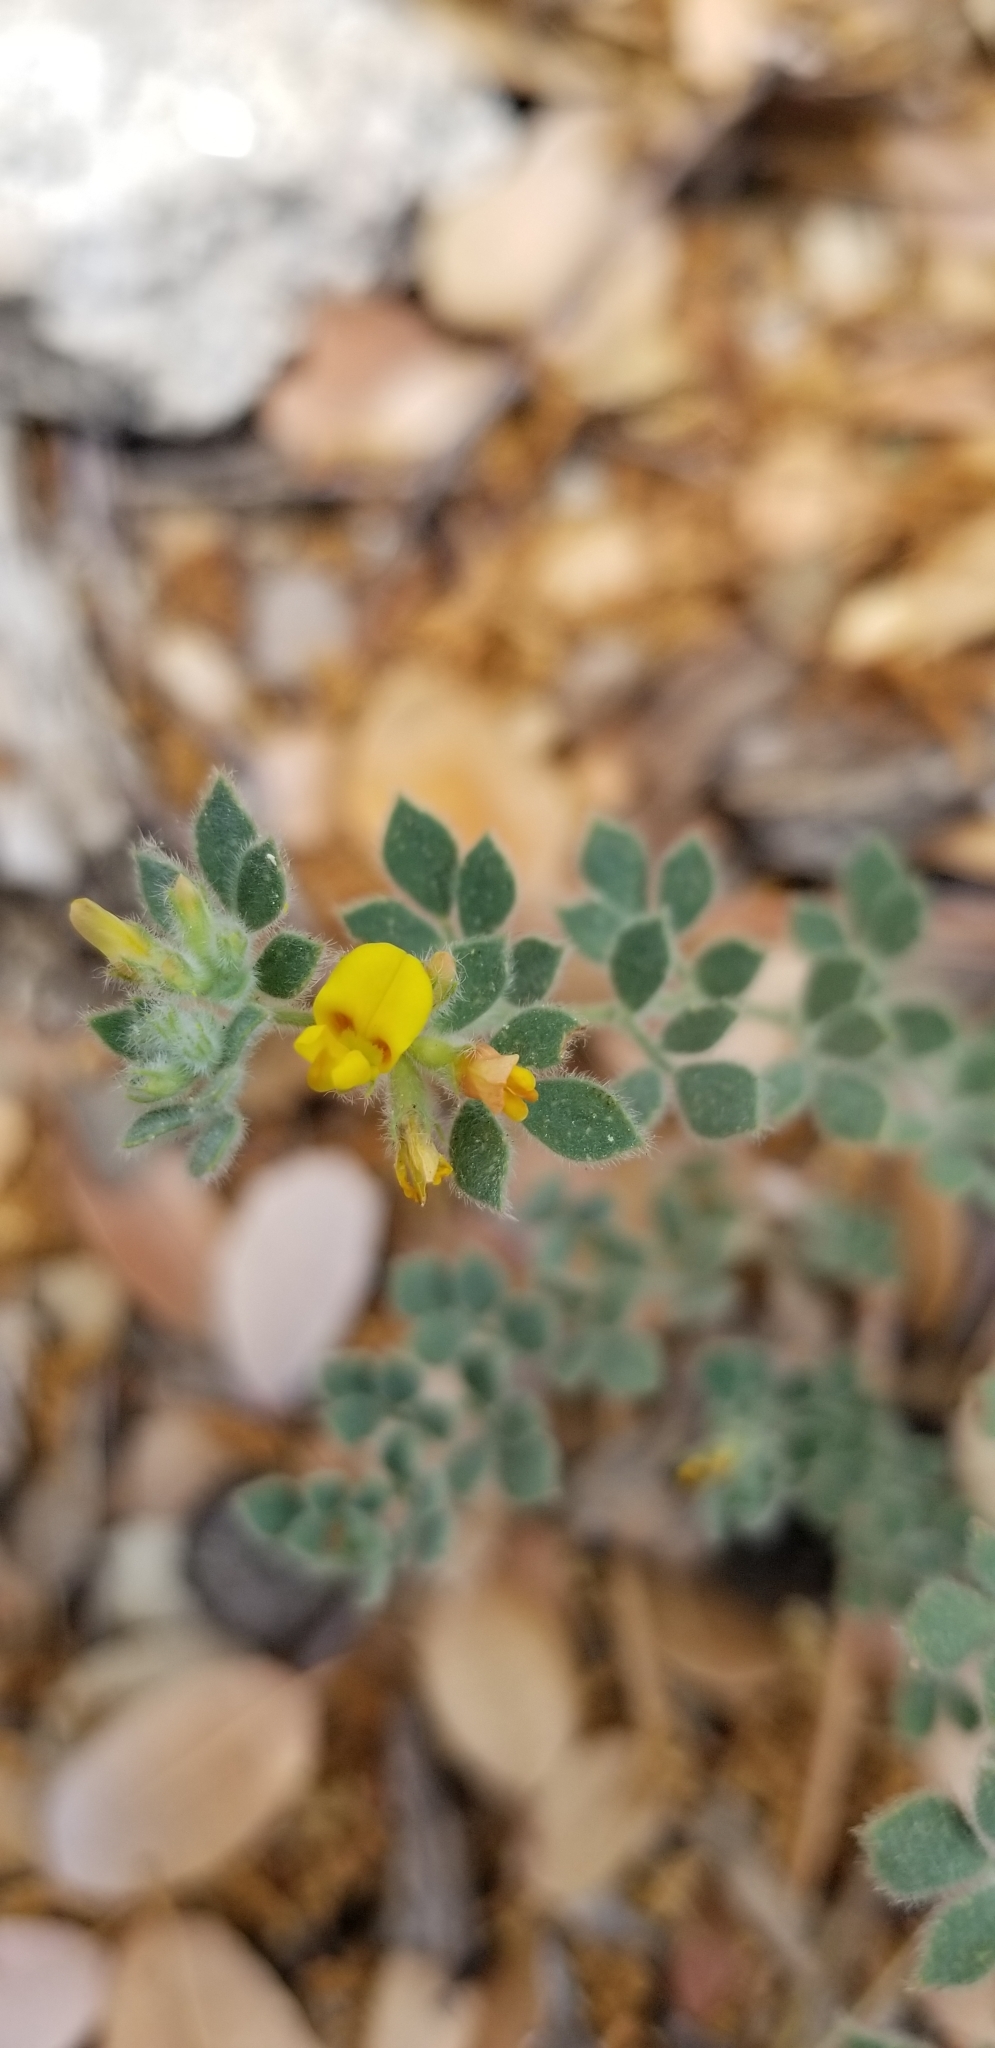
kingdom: Plantae
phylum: Tracheophyta
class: Magnoliopsida
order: Fabales
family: Fabaceae
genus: Acmispon
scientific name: Acmispon tomentosus
